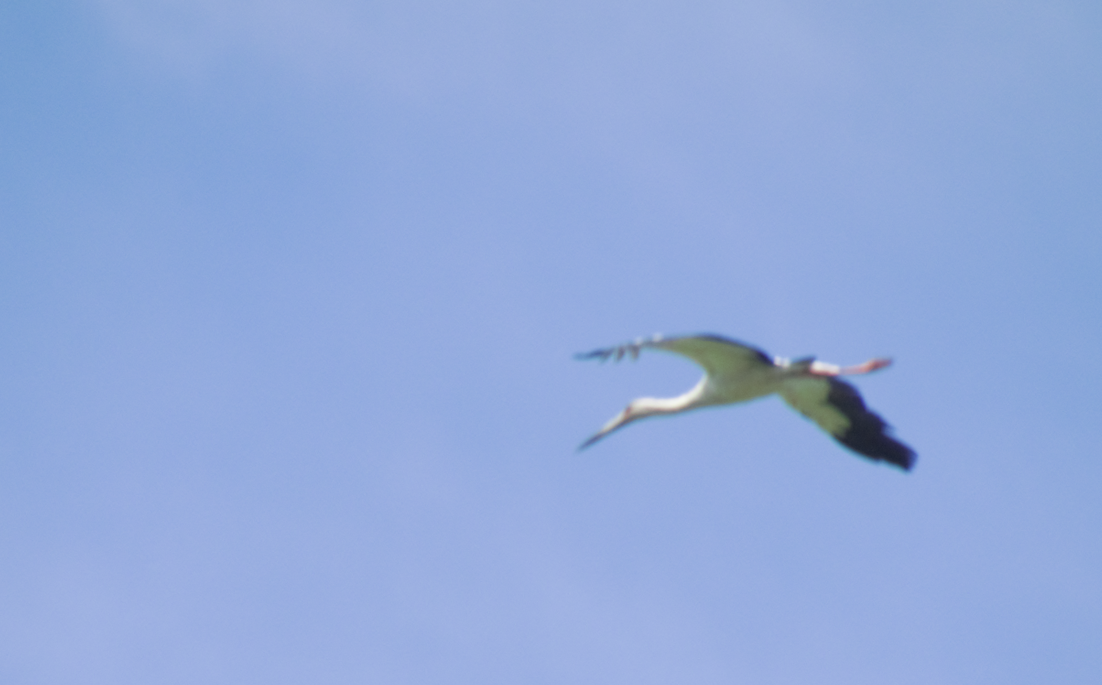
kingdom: Animalia
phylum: Chordata
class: Aves
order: Ciconiiformes
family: Ciconiidae
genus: Ciconia
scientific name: Ciconia maguari
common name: Maguari stork
